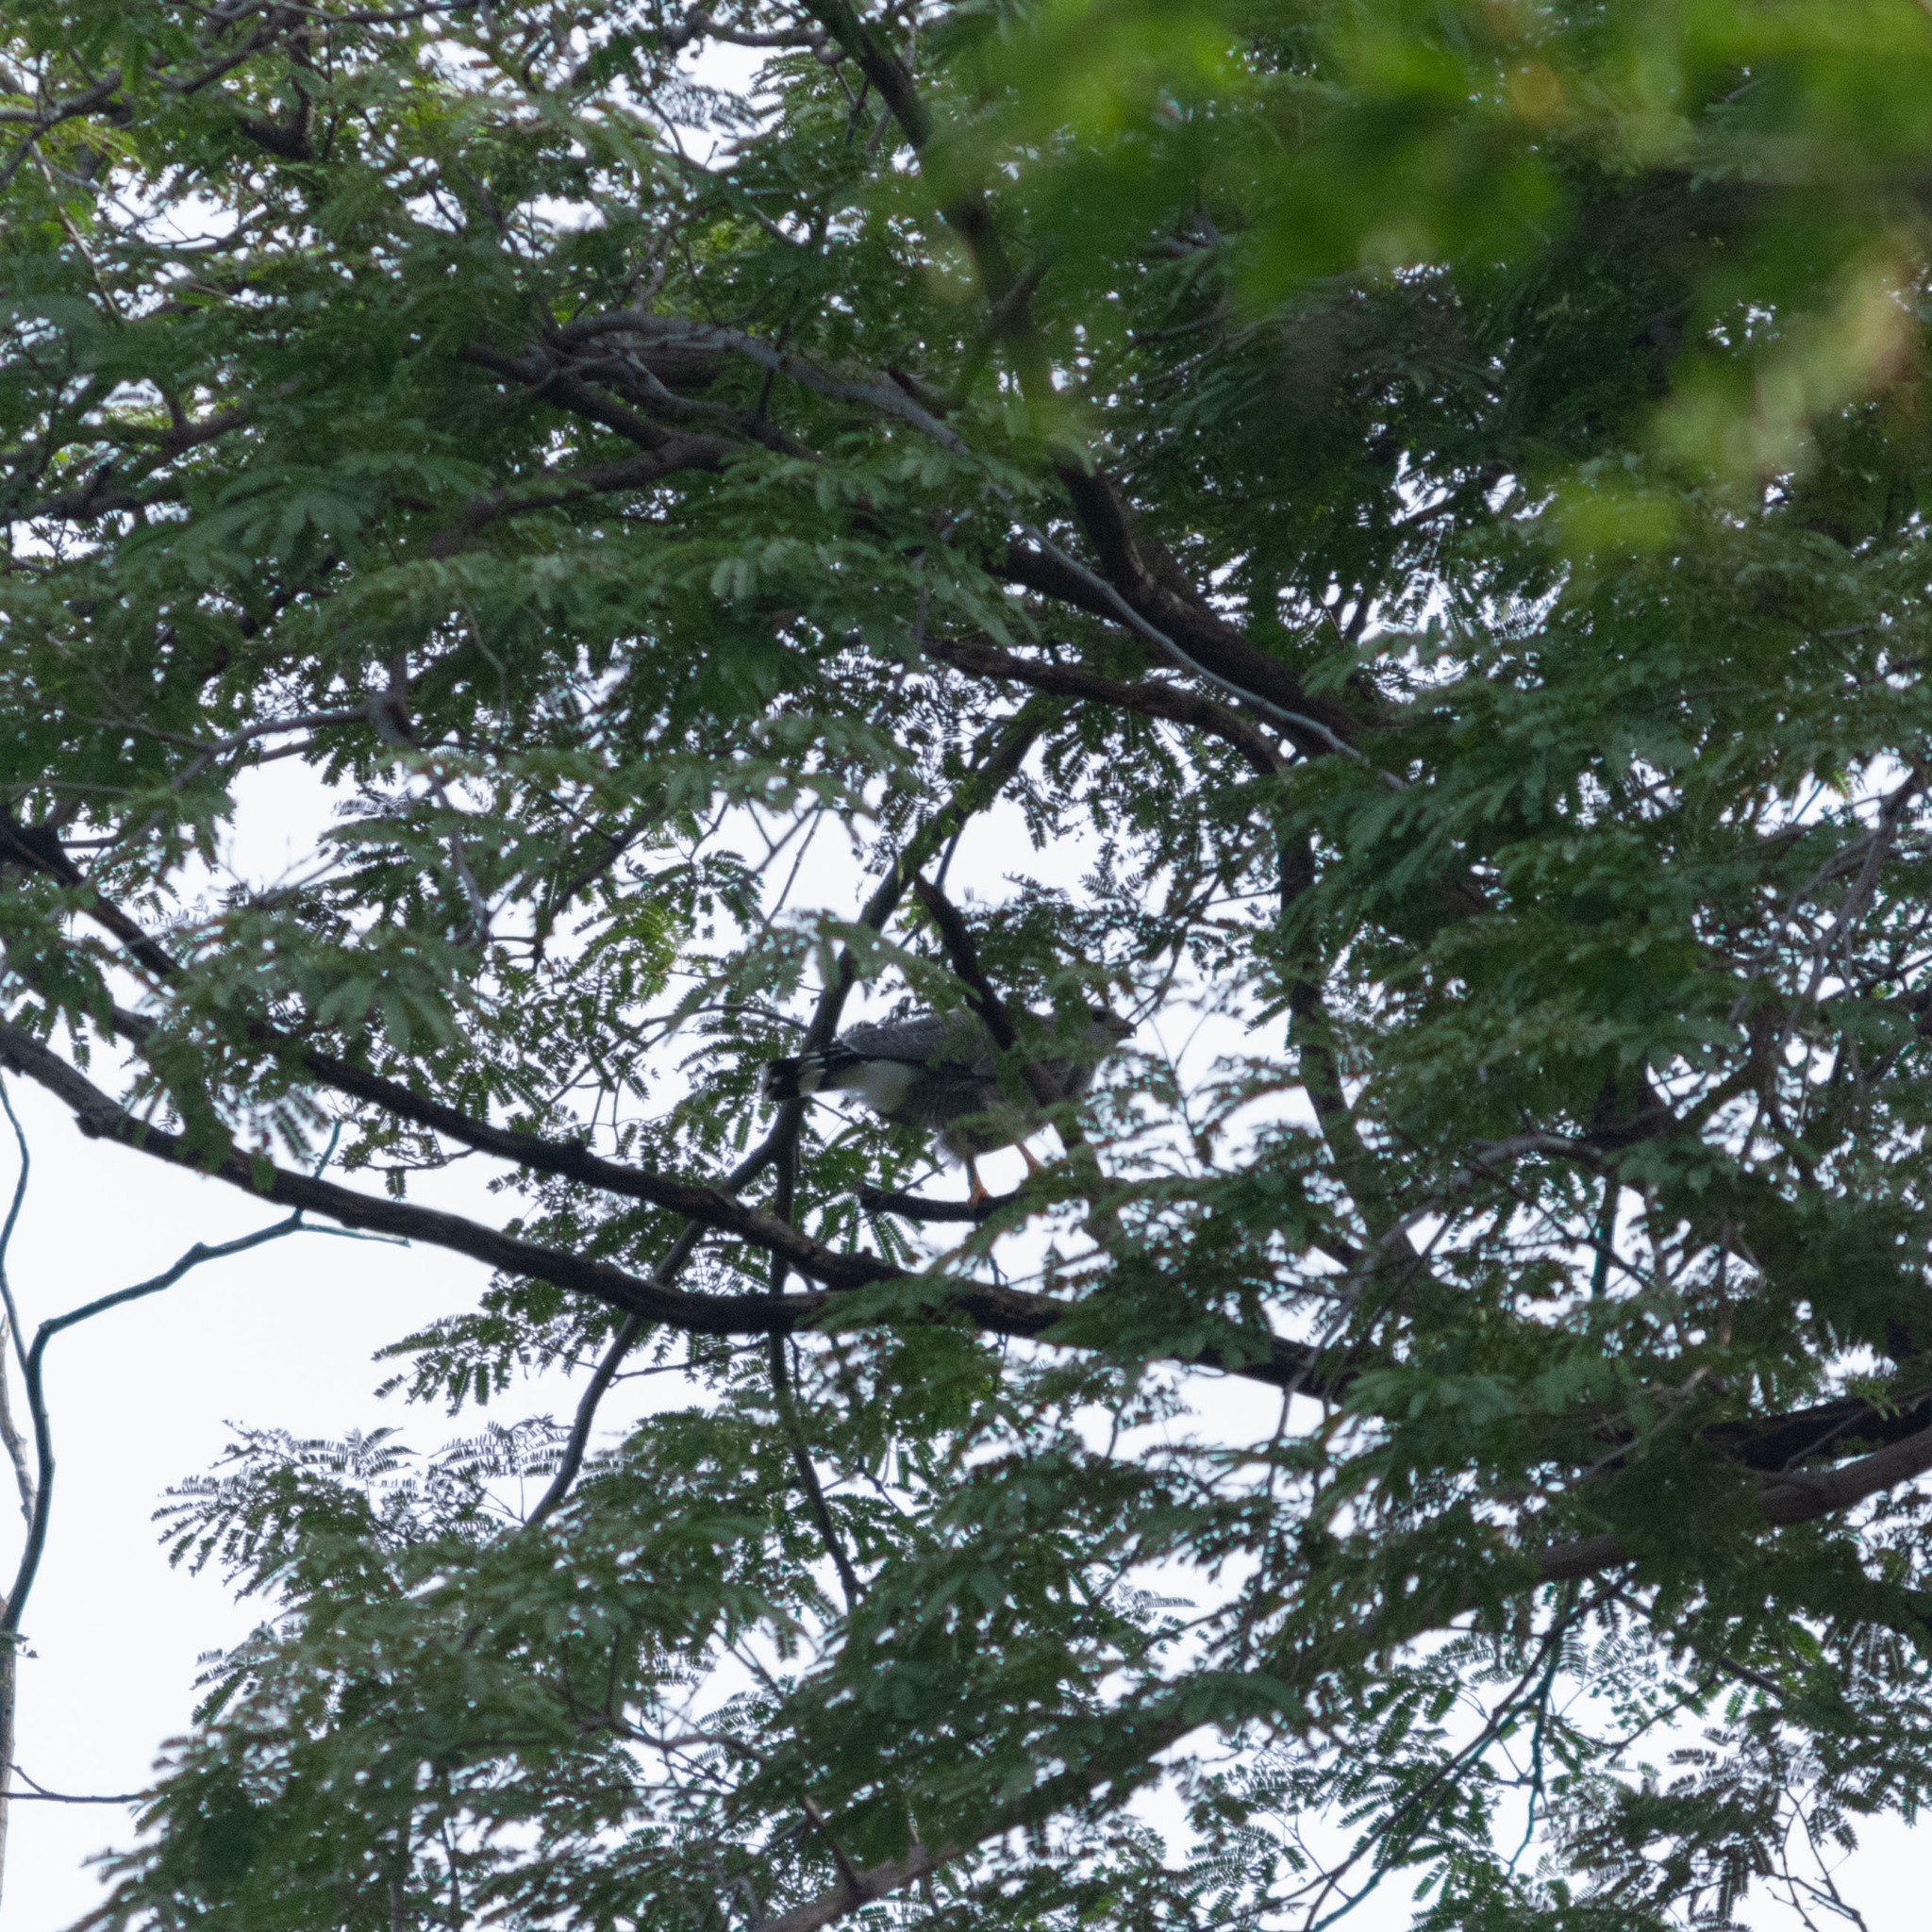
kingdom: Animalia
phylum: Chordata
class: Aves
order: Accipitriformes
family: Accipitridae
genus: Buteo
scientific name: Buteo nitidus
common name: Grey-lined hawk
